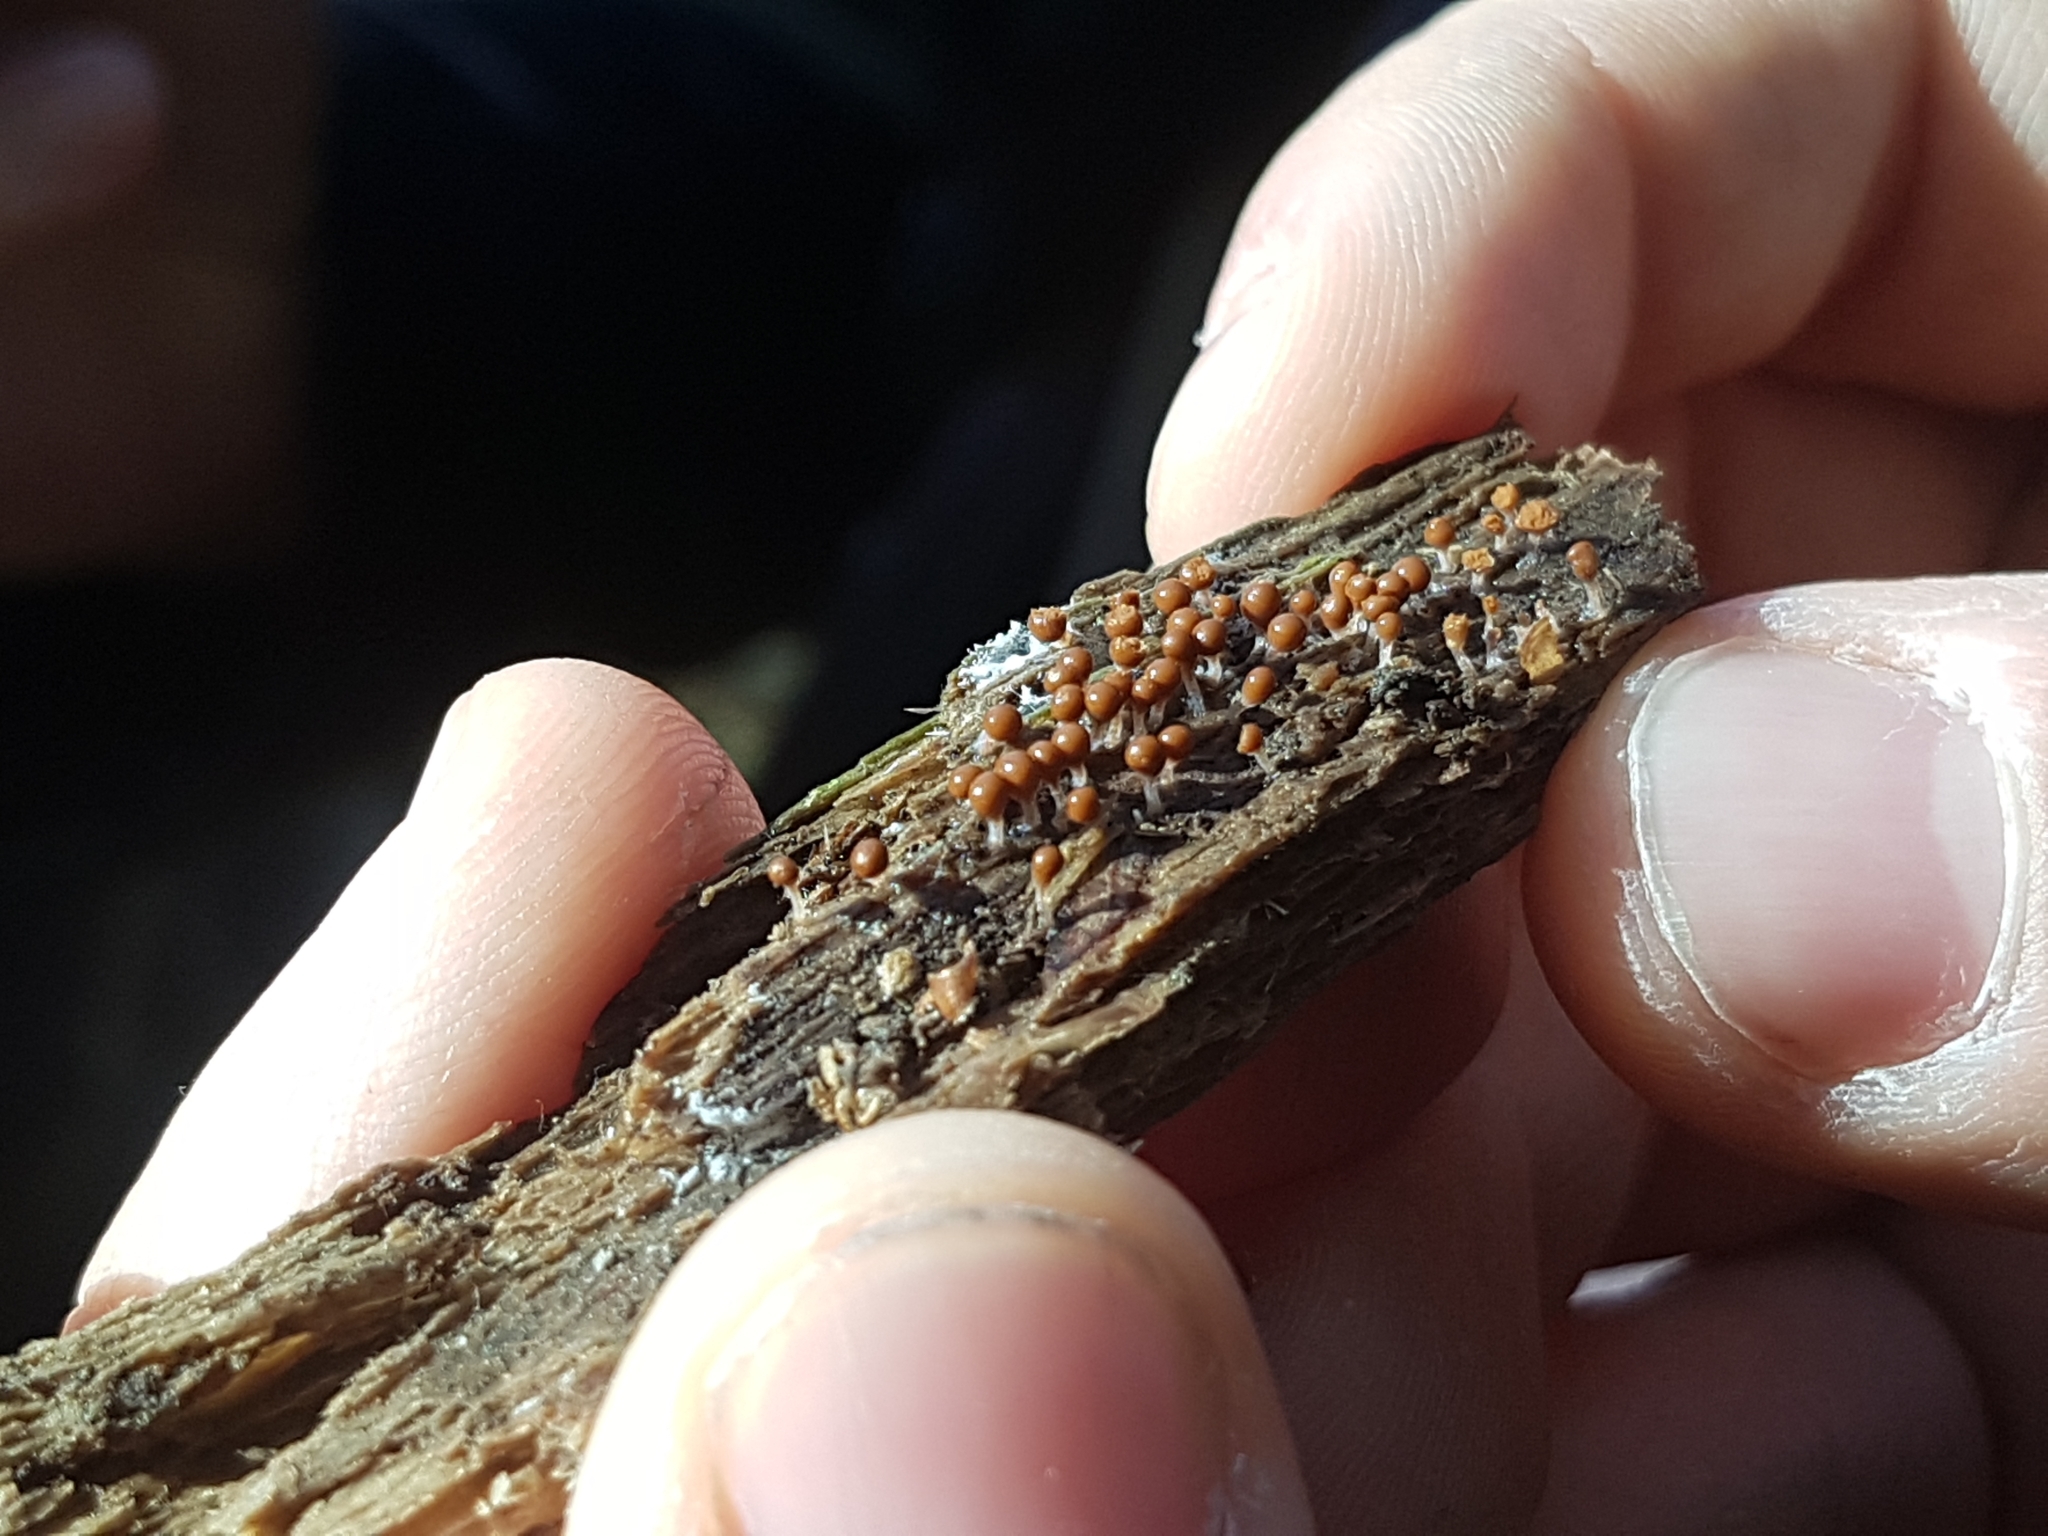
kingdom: Protozoa
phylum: Mycetozoa
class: Myxomycetes
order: Physarales
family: Physaraceae
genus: Leocarpus
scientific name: Leocarpus fragilis
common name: Insect-egg slime
